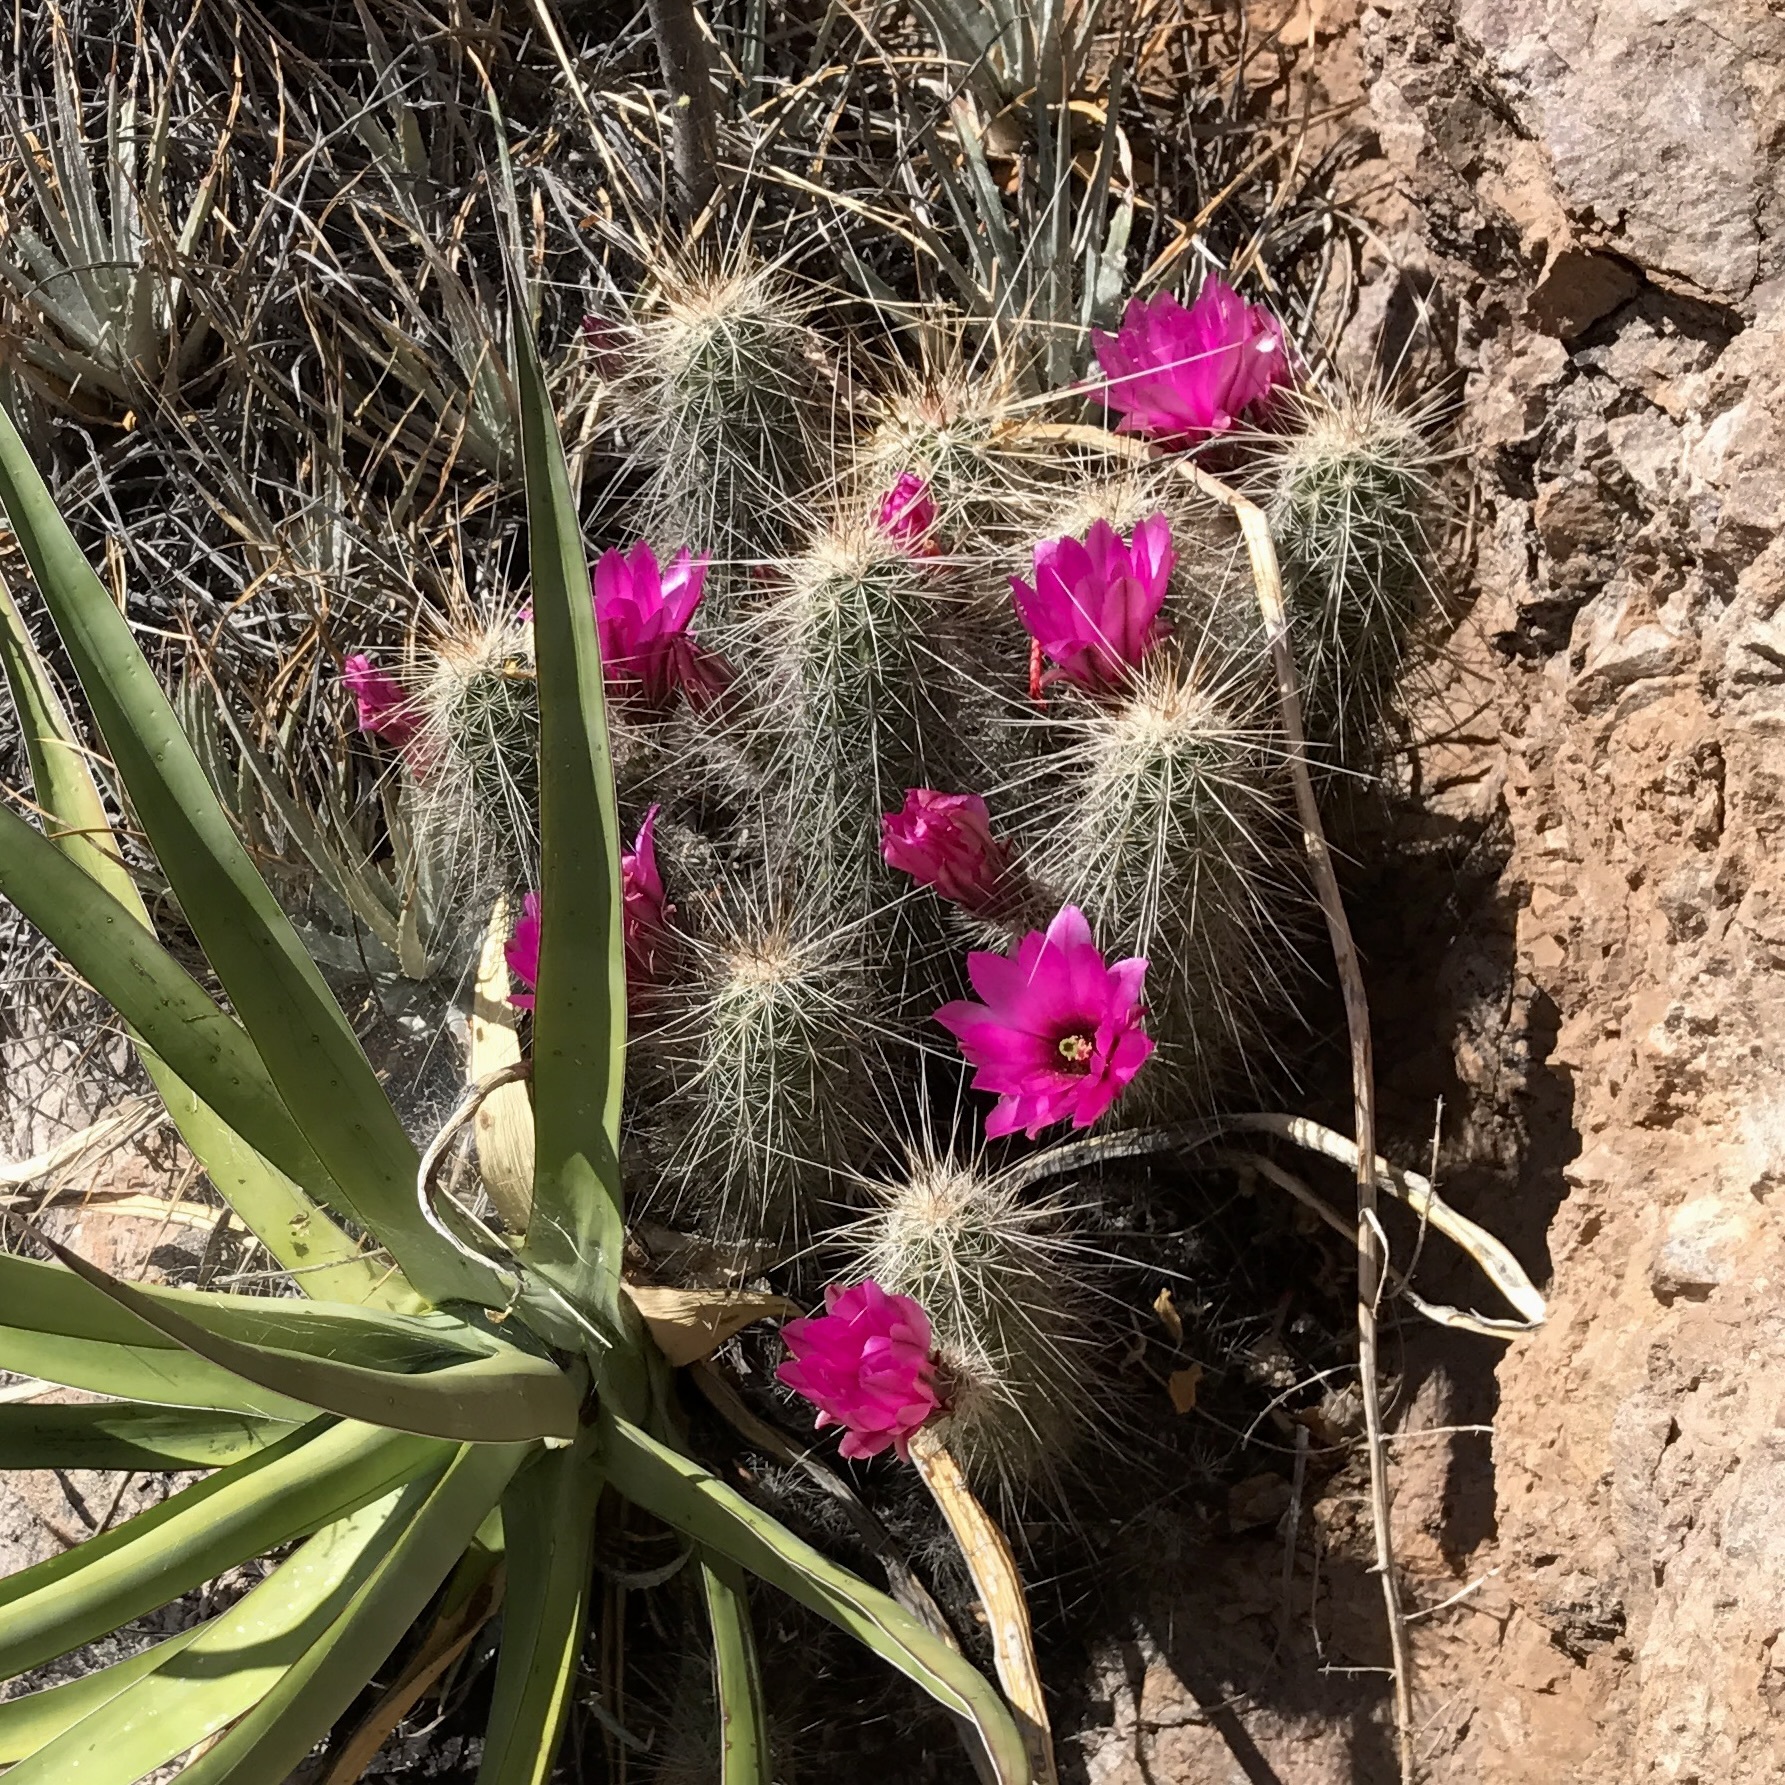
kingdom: Plantae
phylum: Tracheophyta
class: Magnoliopsida
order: Caryophyllales
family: Cactaceae
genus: Echinocereus
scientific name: Echinocereus llanurensis
